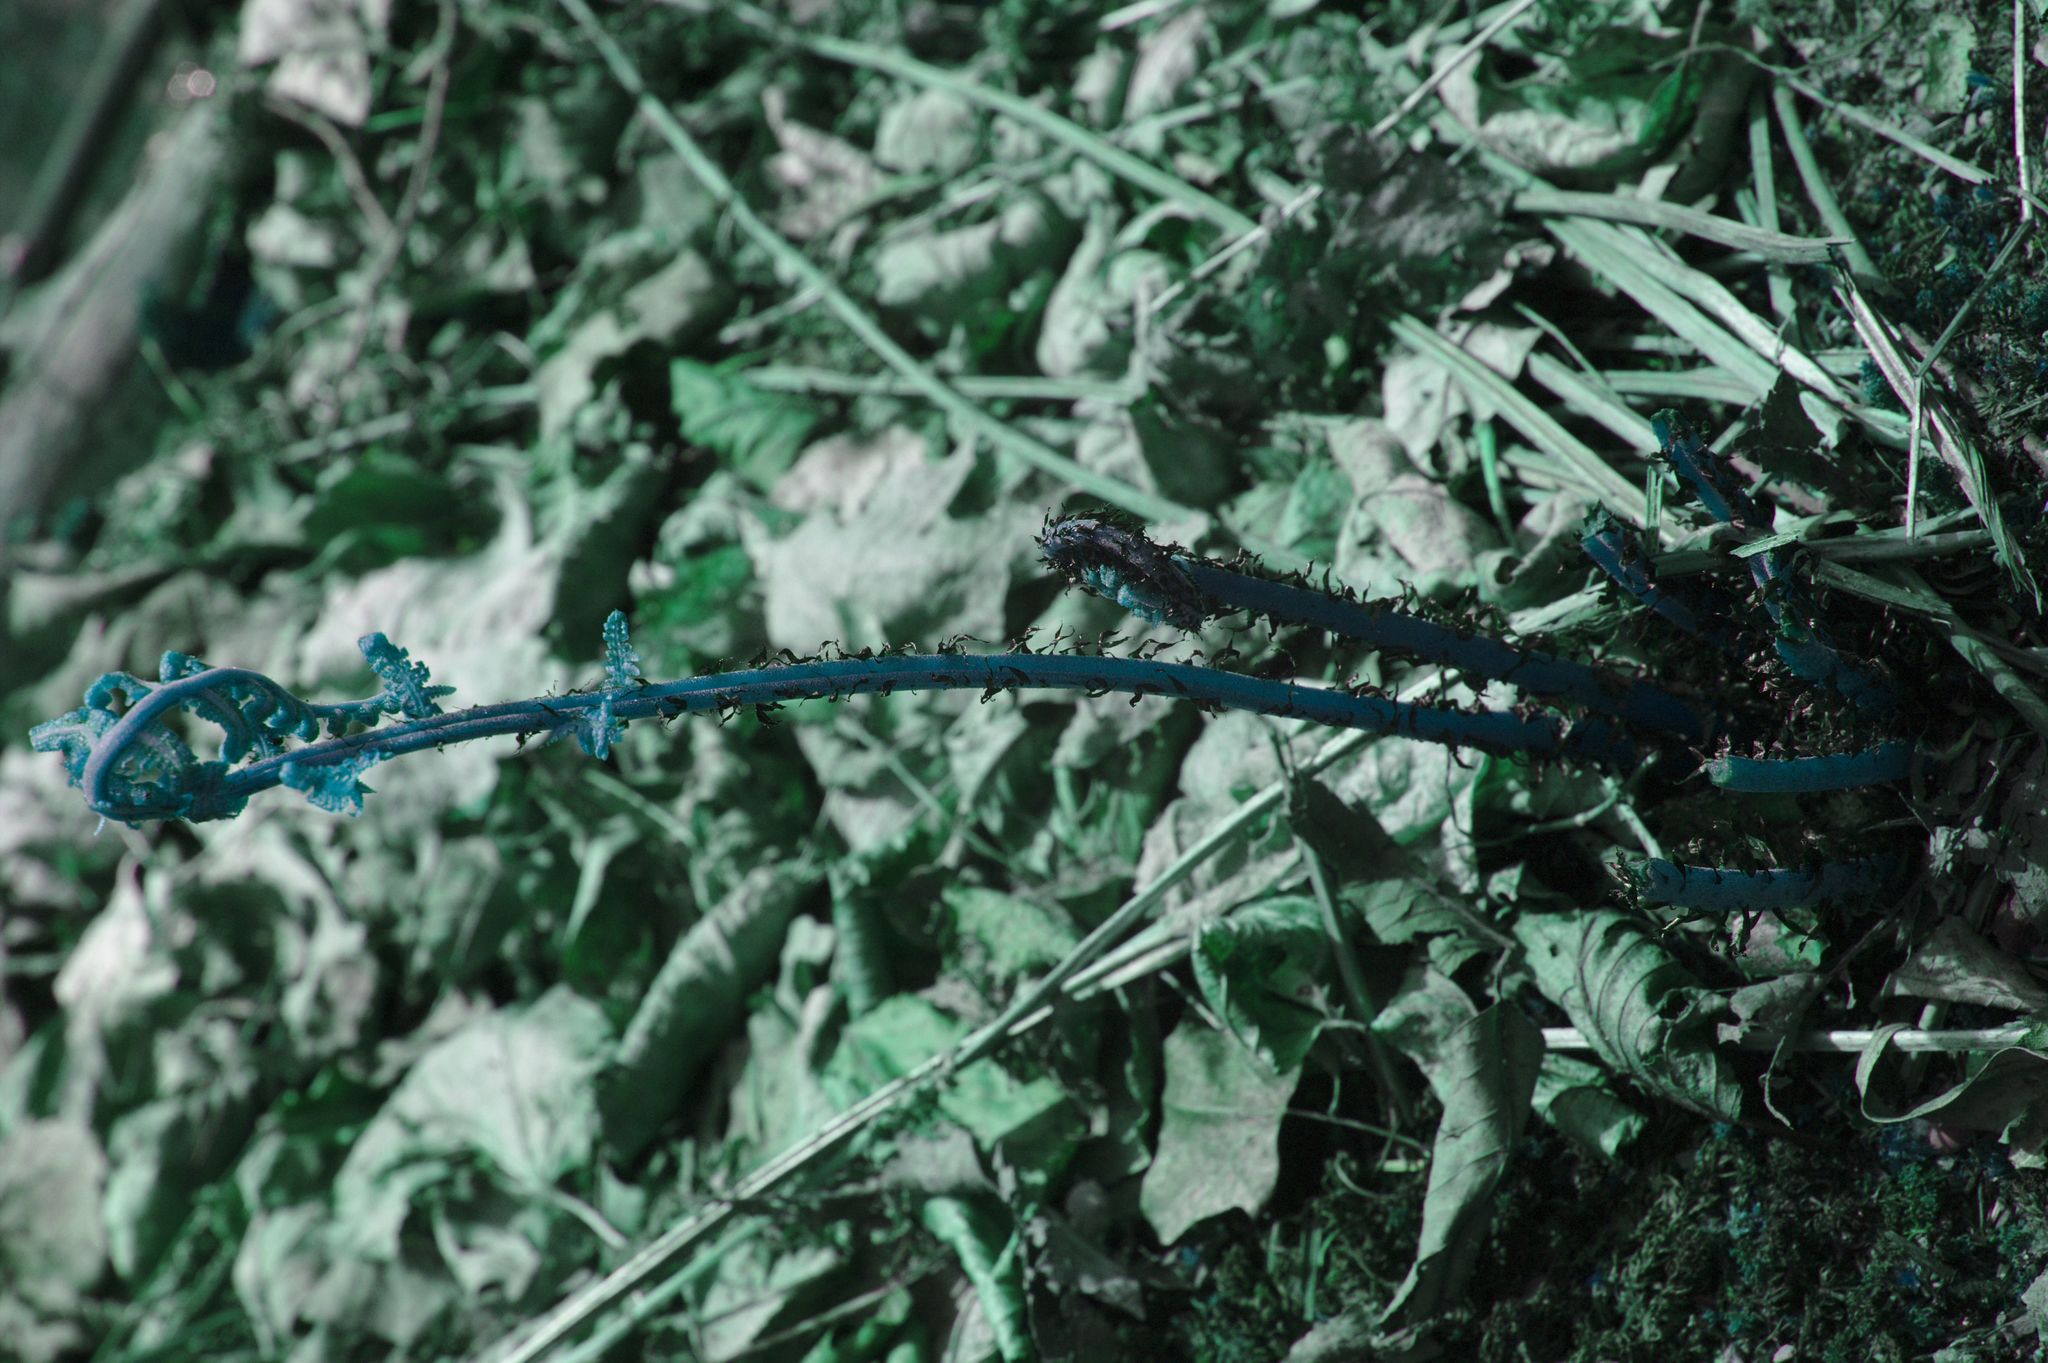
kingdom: Plantae
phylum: Tracheophyta
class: Polypodiopsida
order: Polypodiales
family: Athyriaceae
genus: Athyrium
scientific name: Athyrium angustum
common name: Northern lady fern
